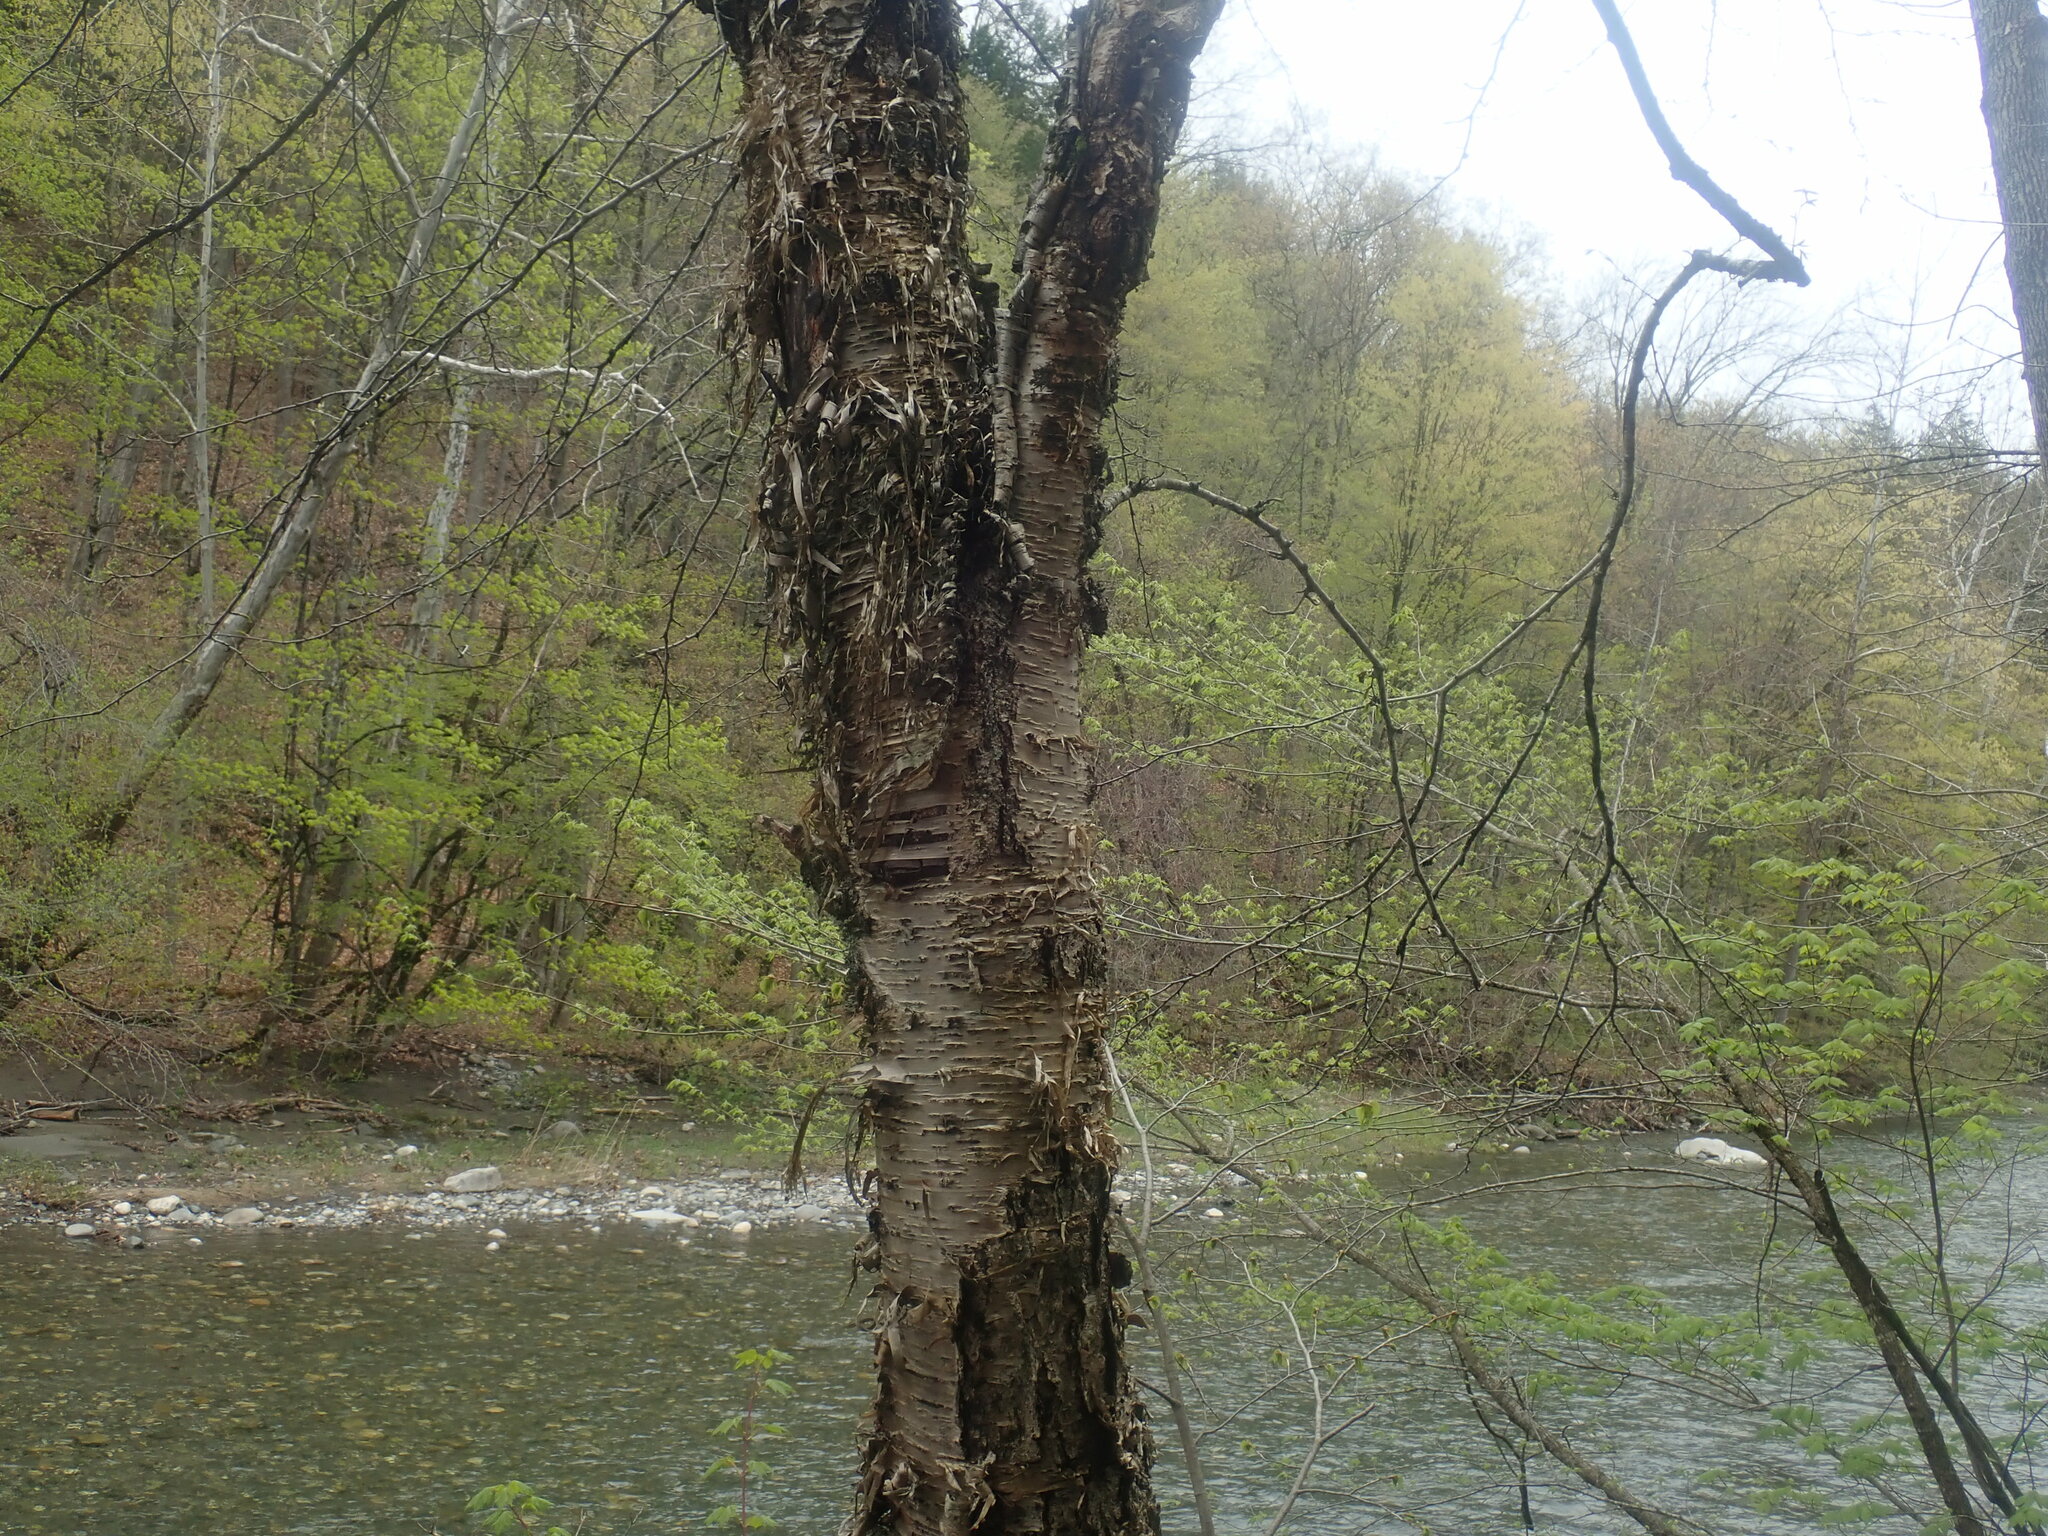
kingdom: Plantae
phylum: Tracheophyta
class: Magnoliopsida
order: Fagales
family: Betulaceae
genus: Betula
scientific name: Betula alleghaniensis
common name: Yellow birch
